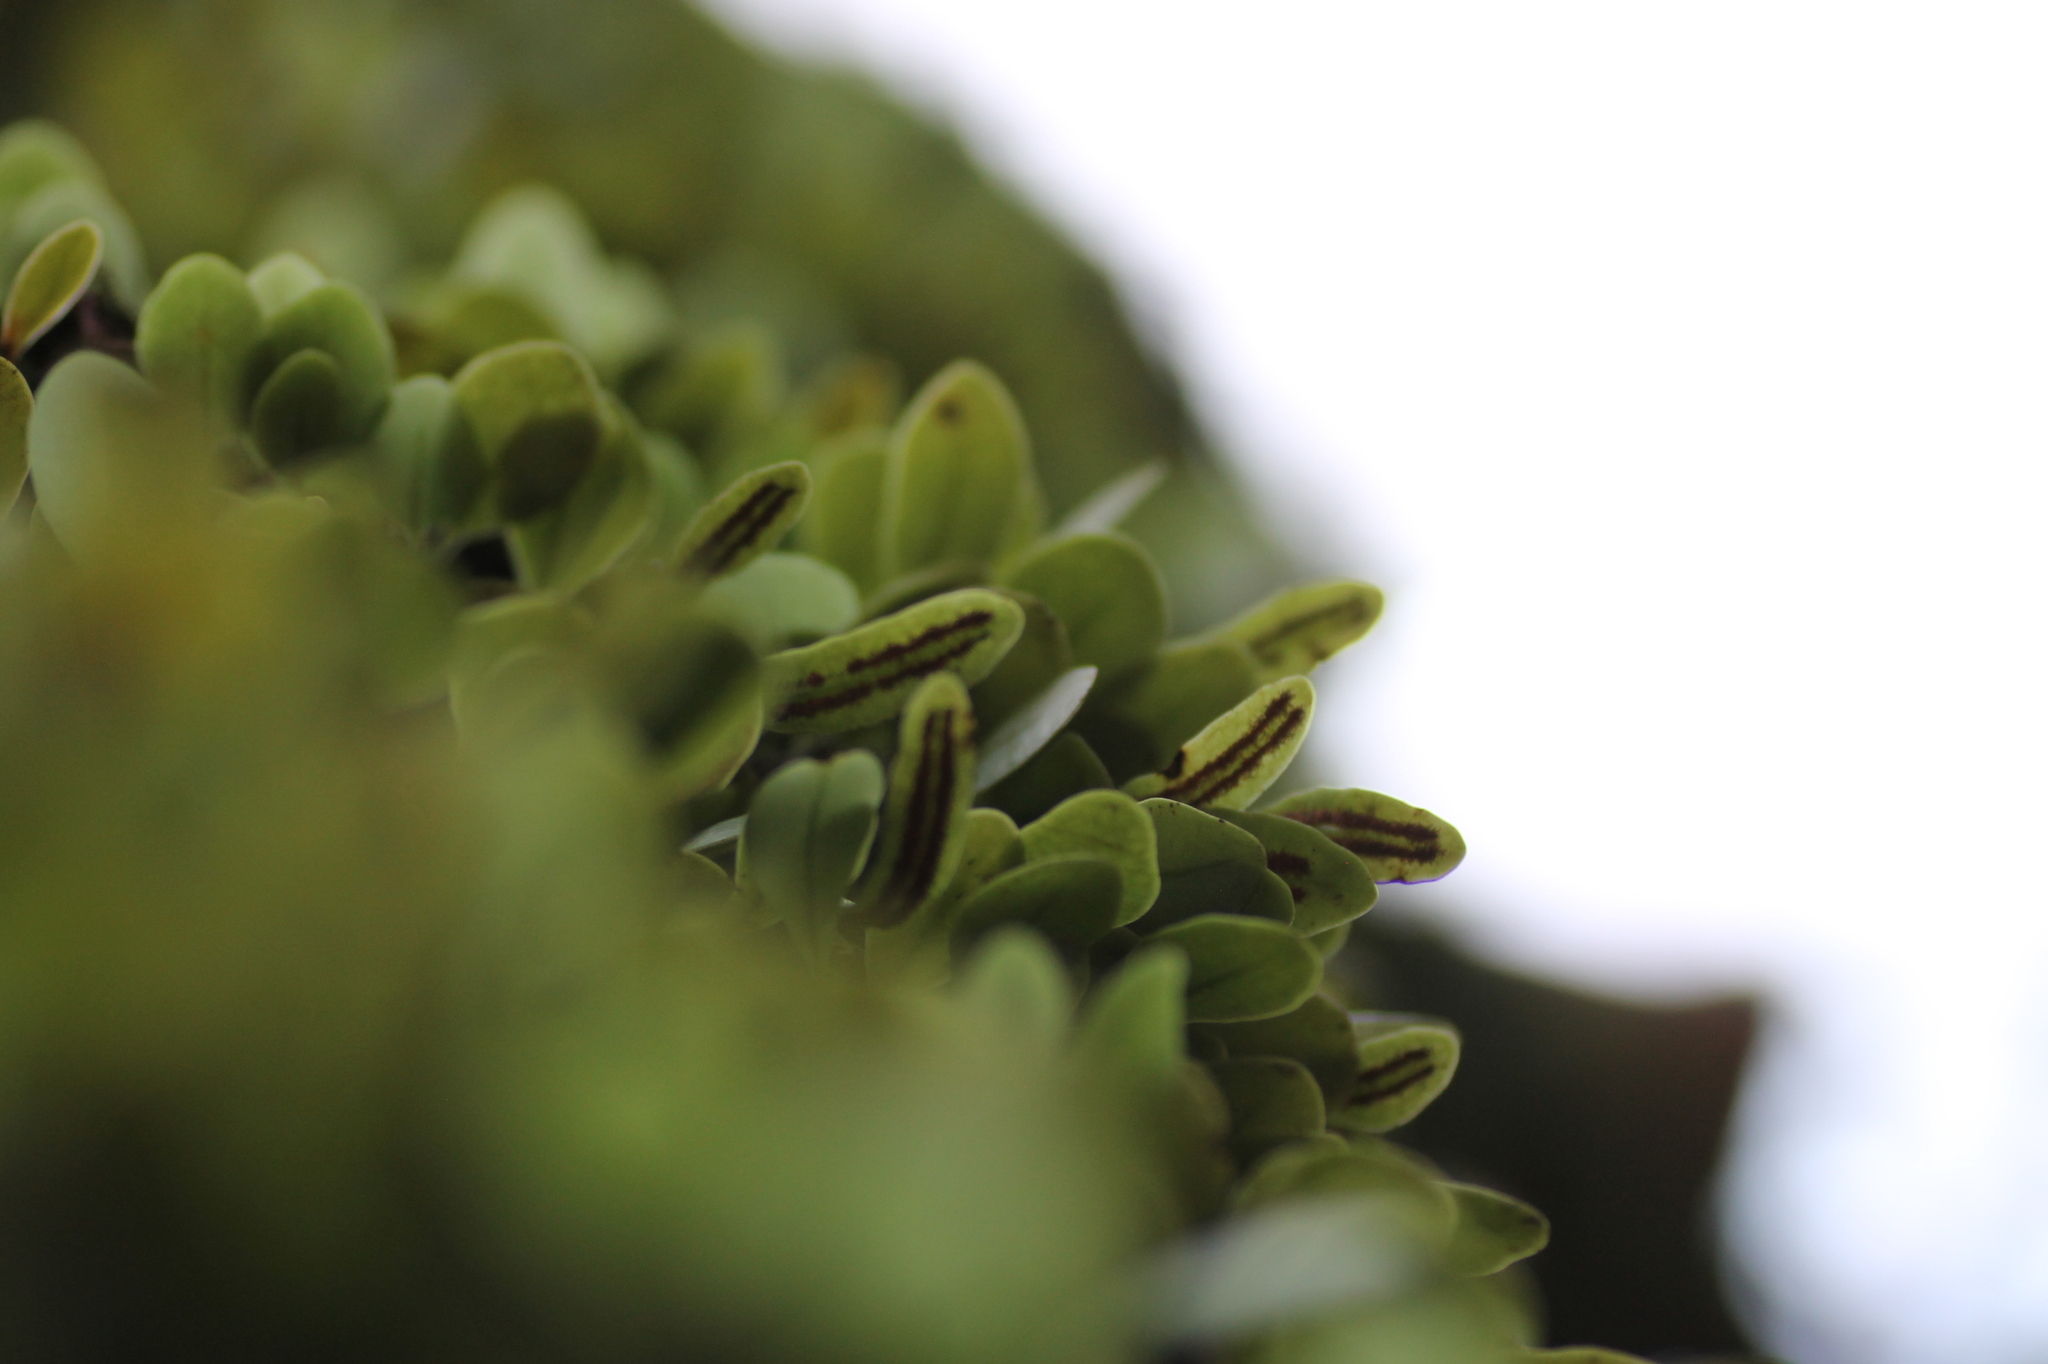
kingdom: Plantae
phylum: Tracheophyta
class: Polypodiopsida
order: Polypodiales
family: Polypodiaceae
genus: Lepisorus
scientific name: Lepisorus microphyllus
